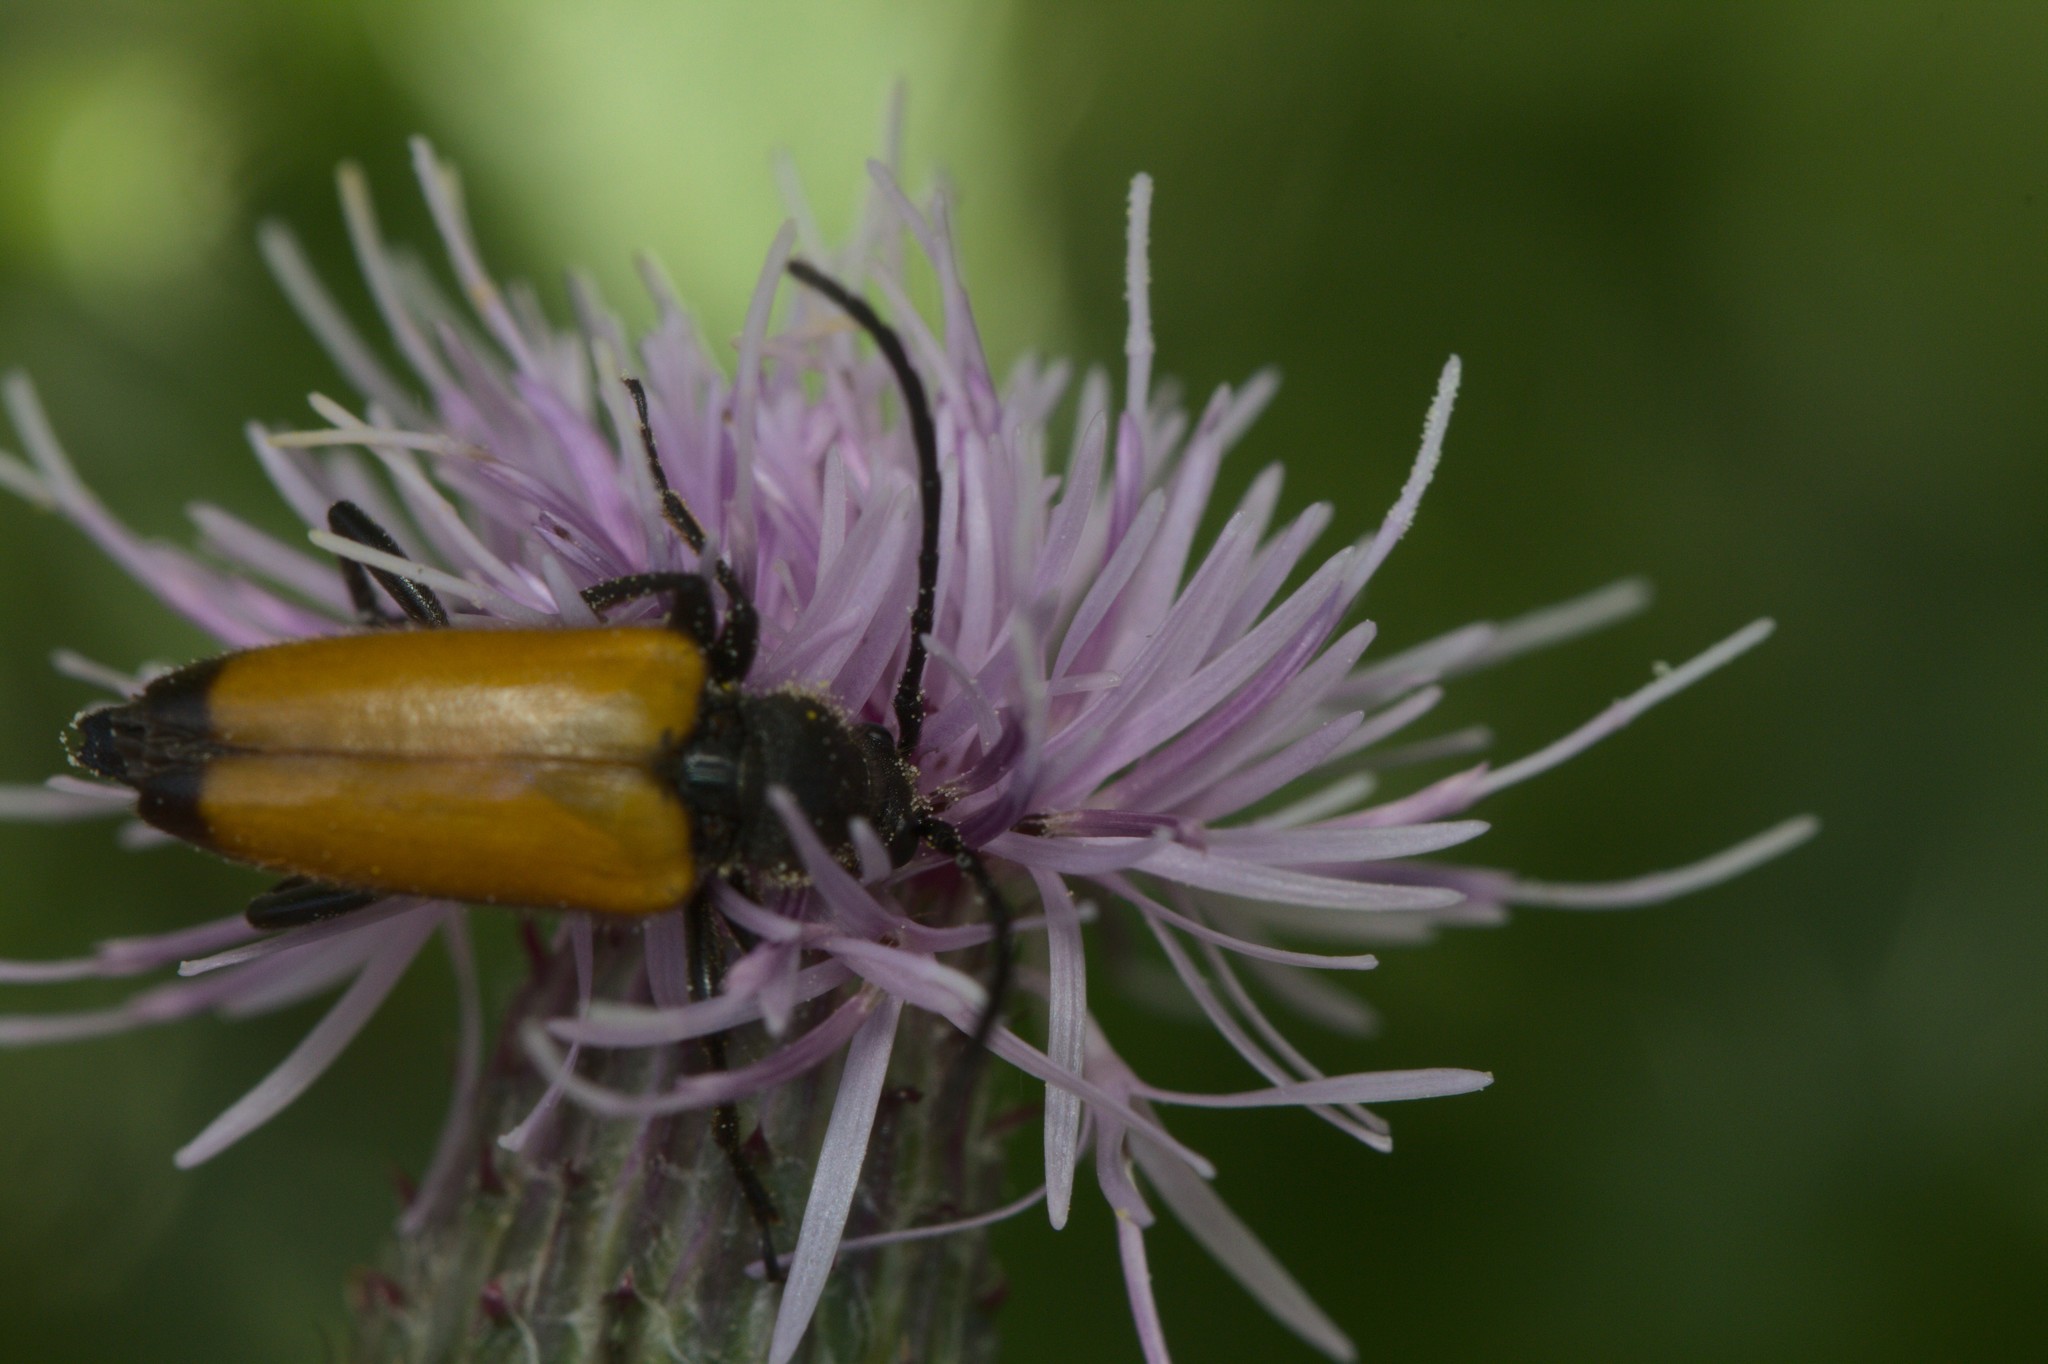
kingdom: Animalia
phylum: Arthropoda
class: Insecta
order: Coleoptera
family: Cerambycidae
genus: Paracorymbia
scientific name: Paracorymbia fulva
